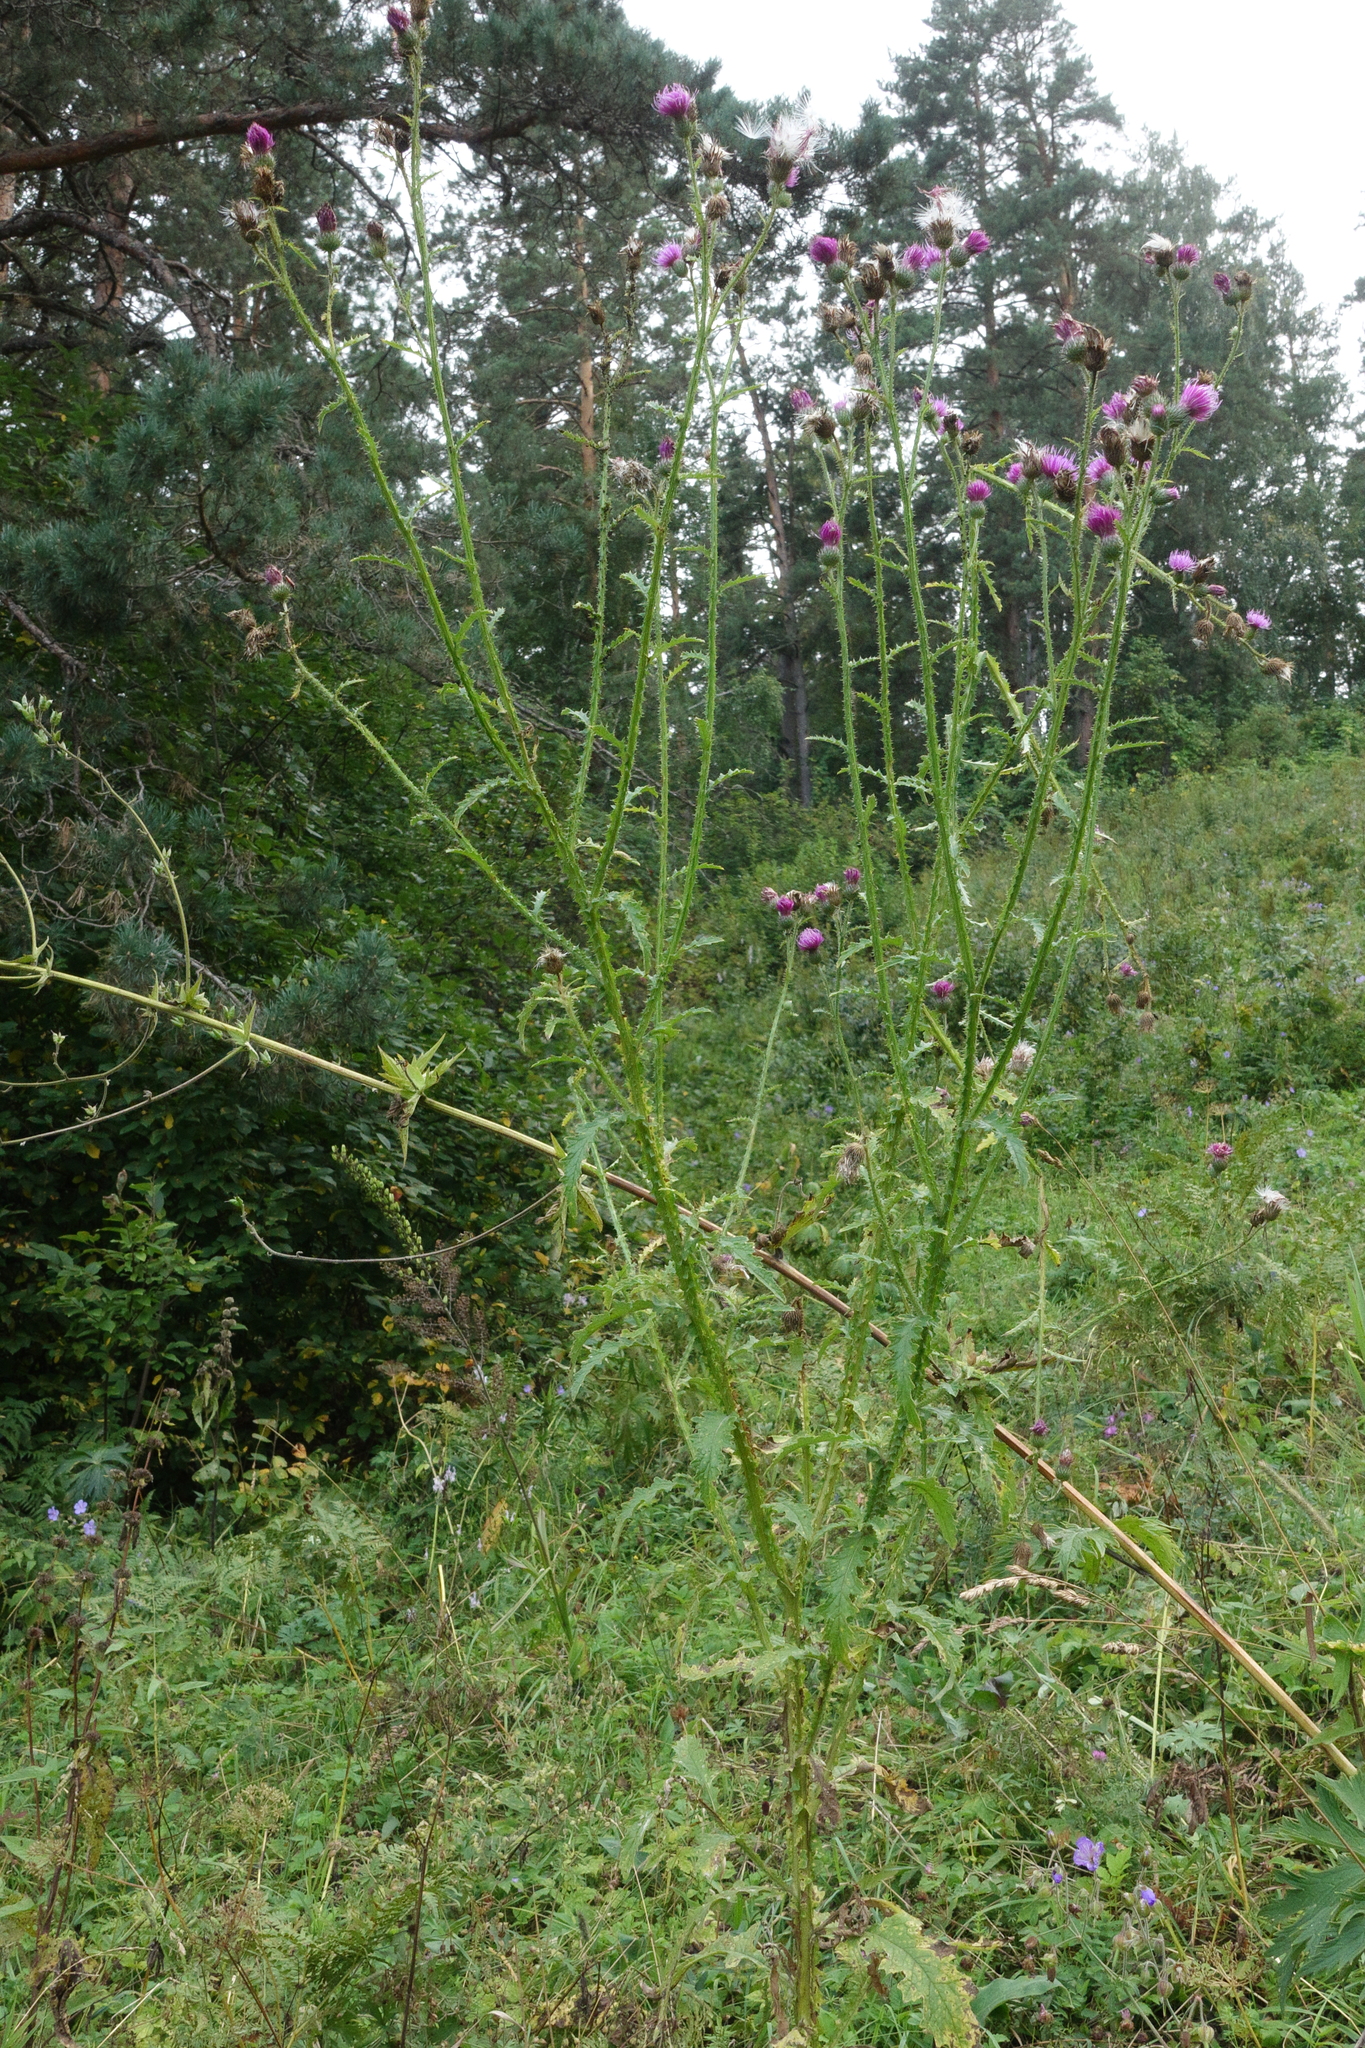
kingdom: Plantae
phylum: Tracheophyta
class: Magnoliopsida
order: Asterales
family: Asteraceae
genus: Carduus
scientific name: Carduus crispus
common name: Welted thistle
